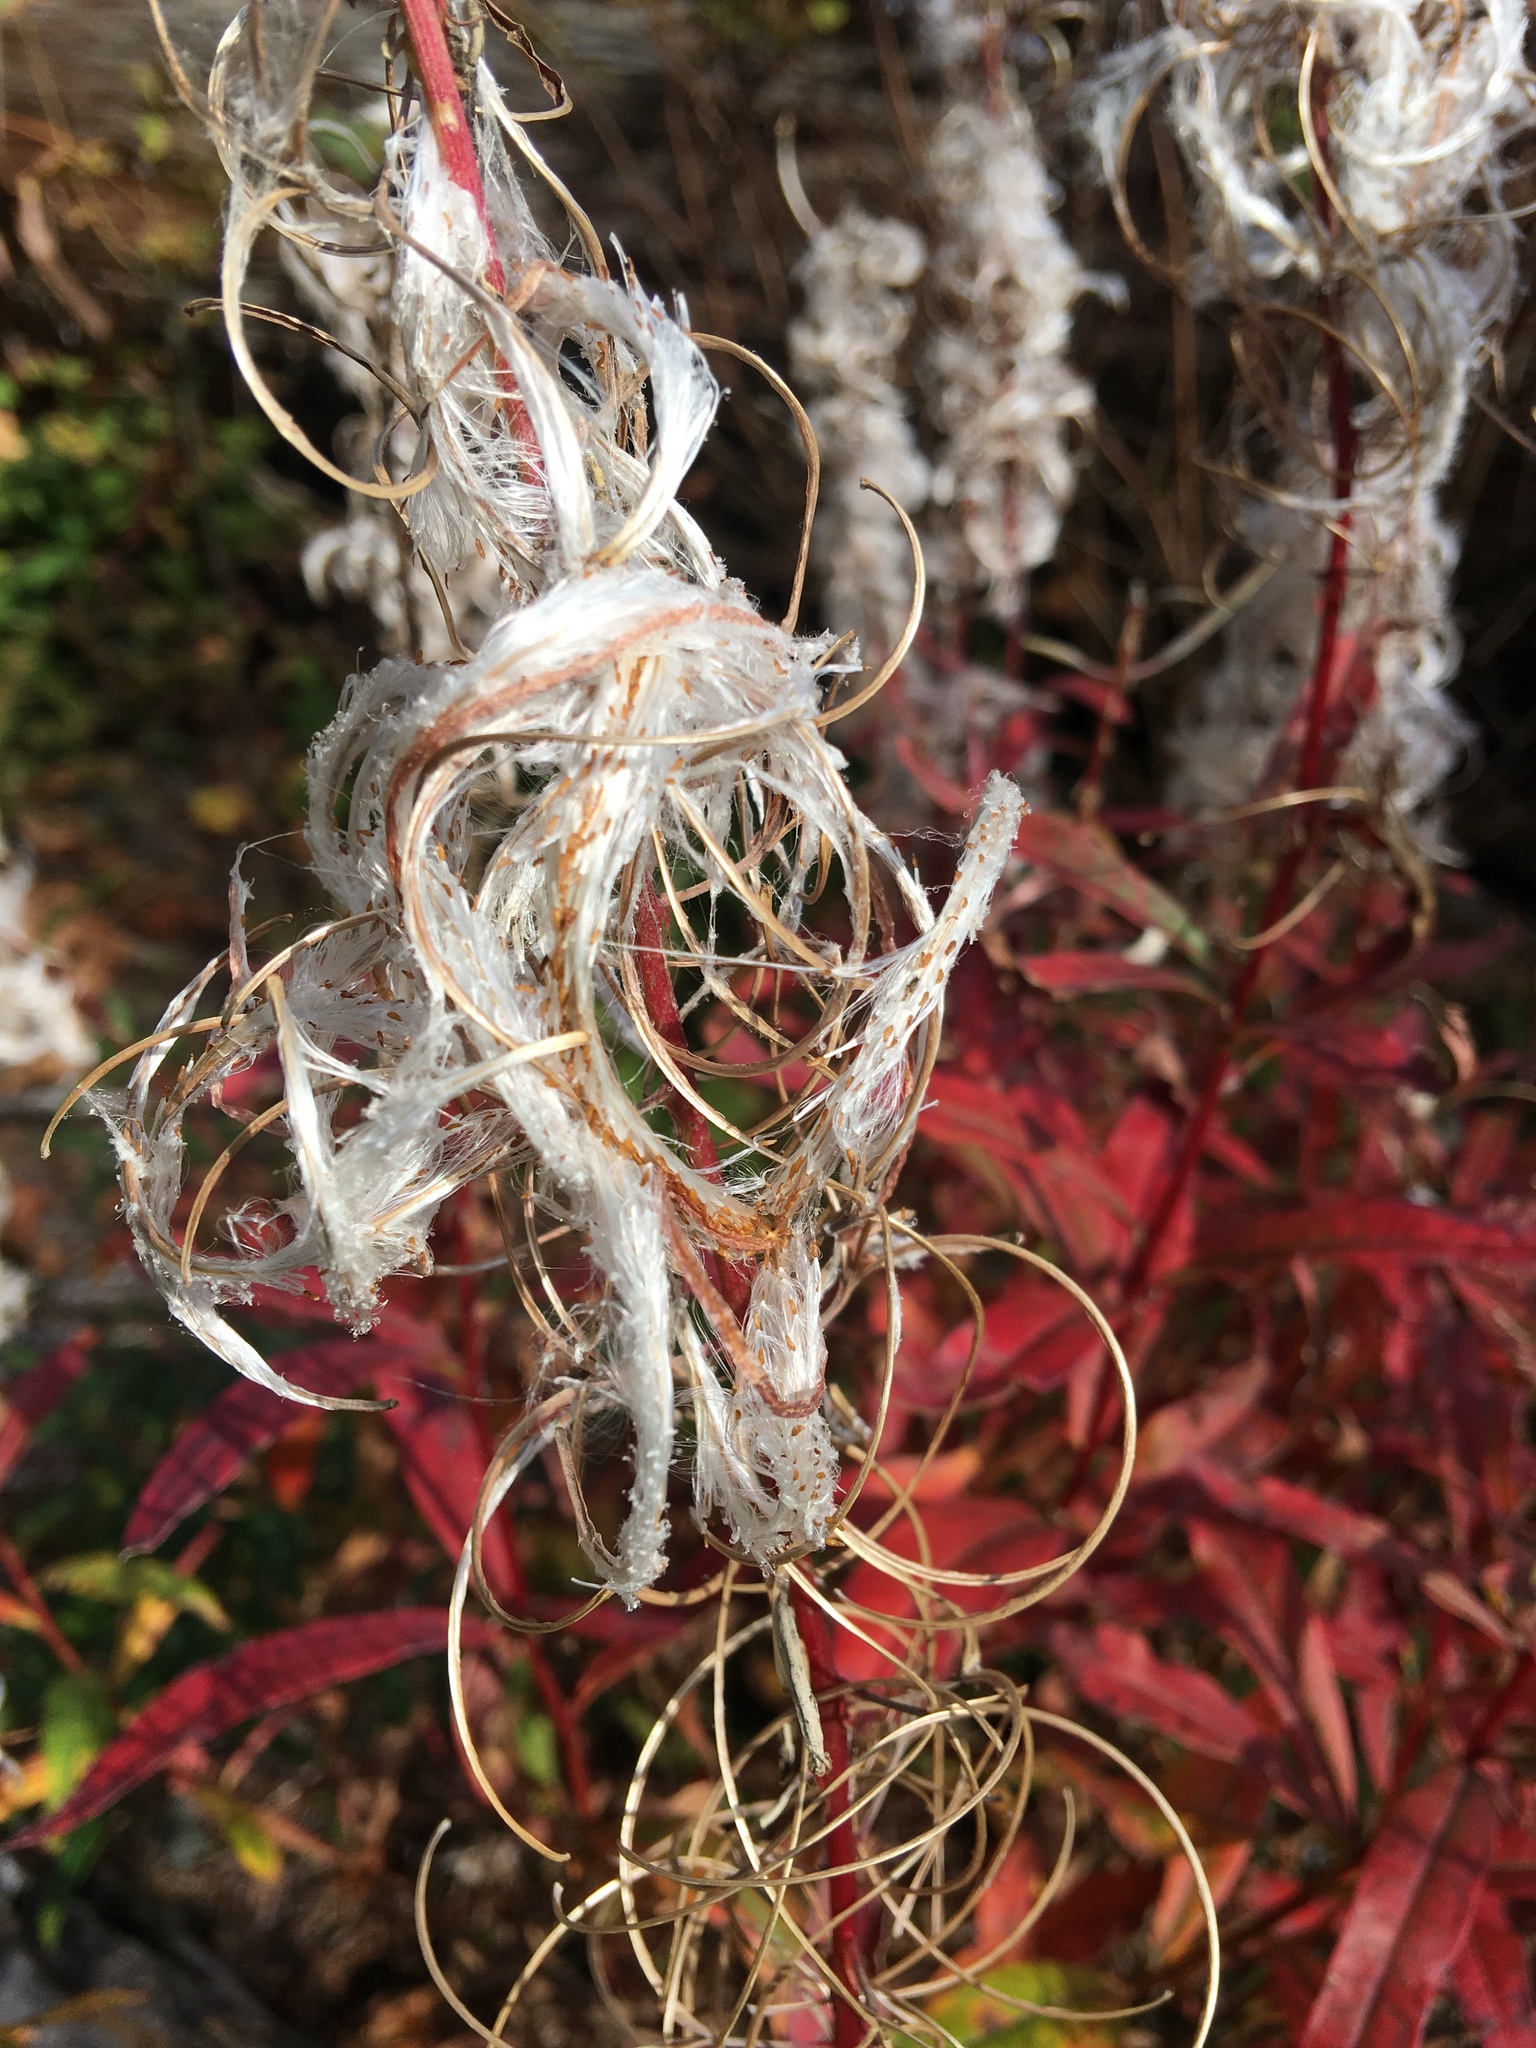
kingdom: Plantae
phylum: Tracheophyta
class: Magnoliopsida
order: Myrtales
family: Onagraceae
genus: Chamaenerion
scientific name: Chamaenerion angustifolium
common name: Fireweed
